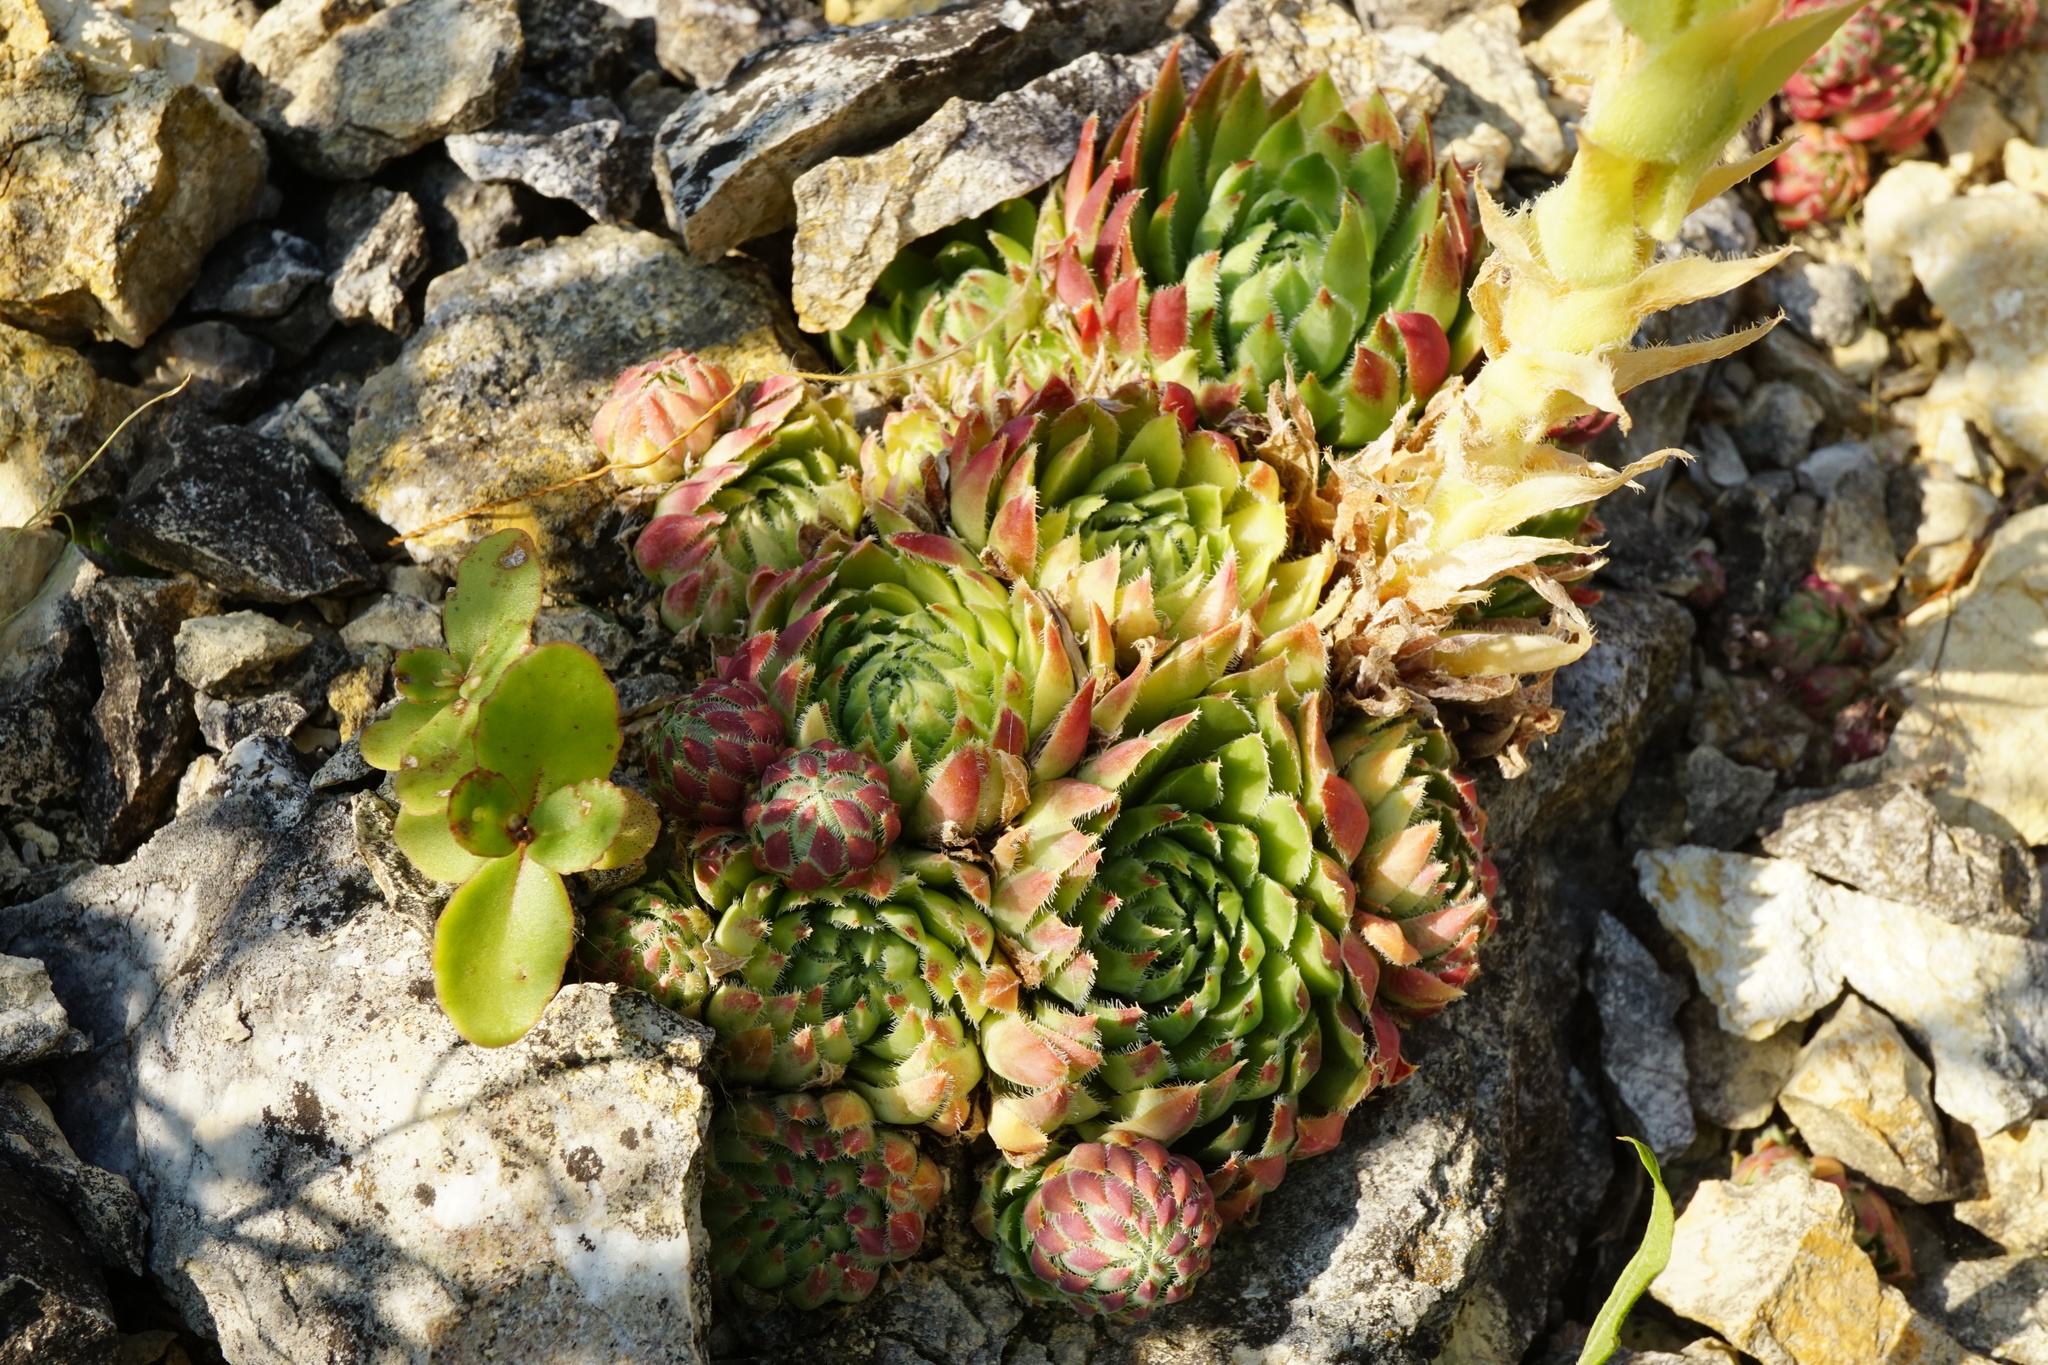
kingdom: Plantae
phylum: Tracheophyta
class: Magnoliopsida
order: Saxifragales
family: Crassulaceae
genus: Sempervivum
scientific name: Sempervivum globiferum
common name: Rolling hen-and-chicks
